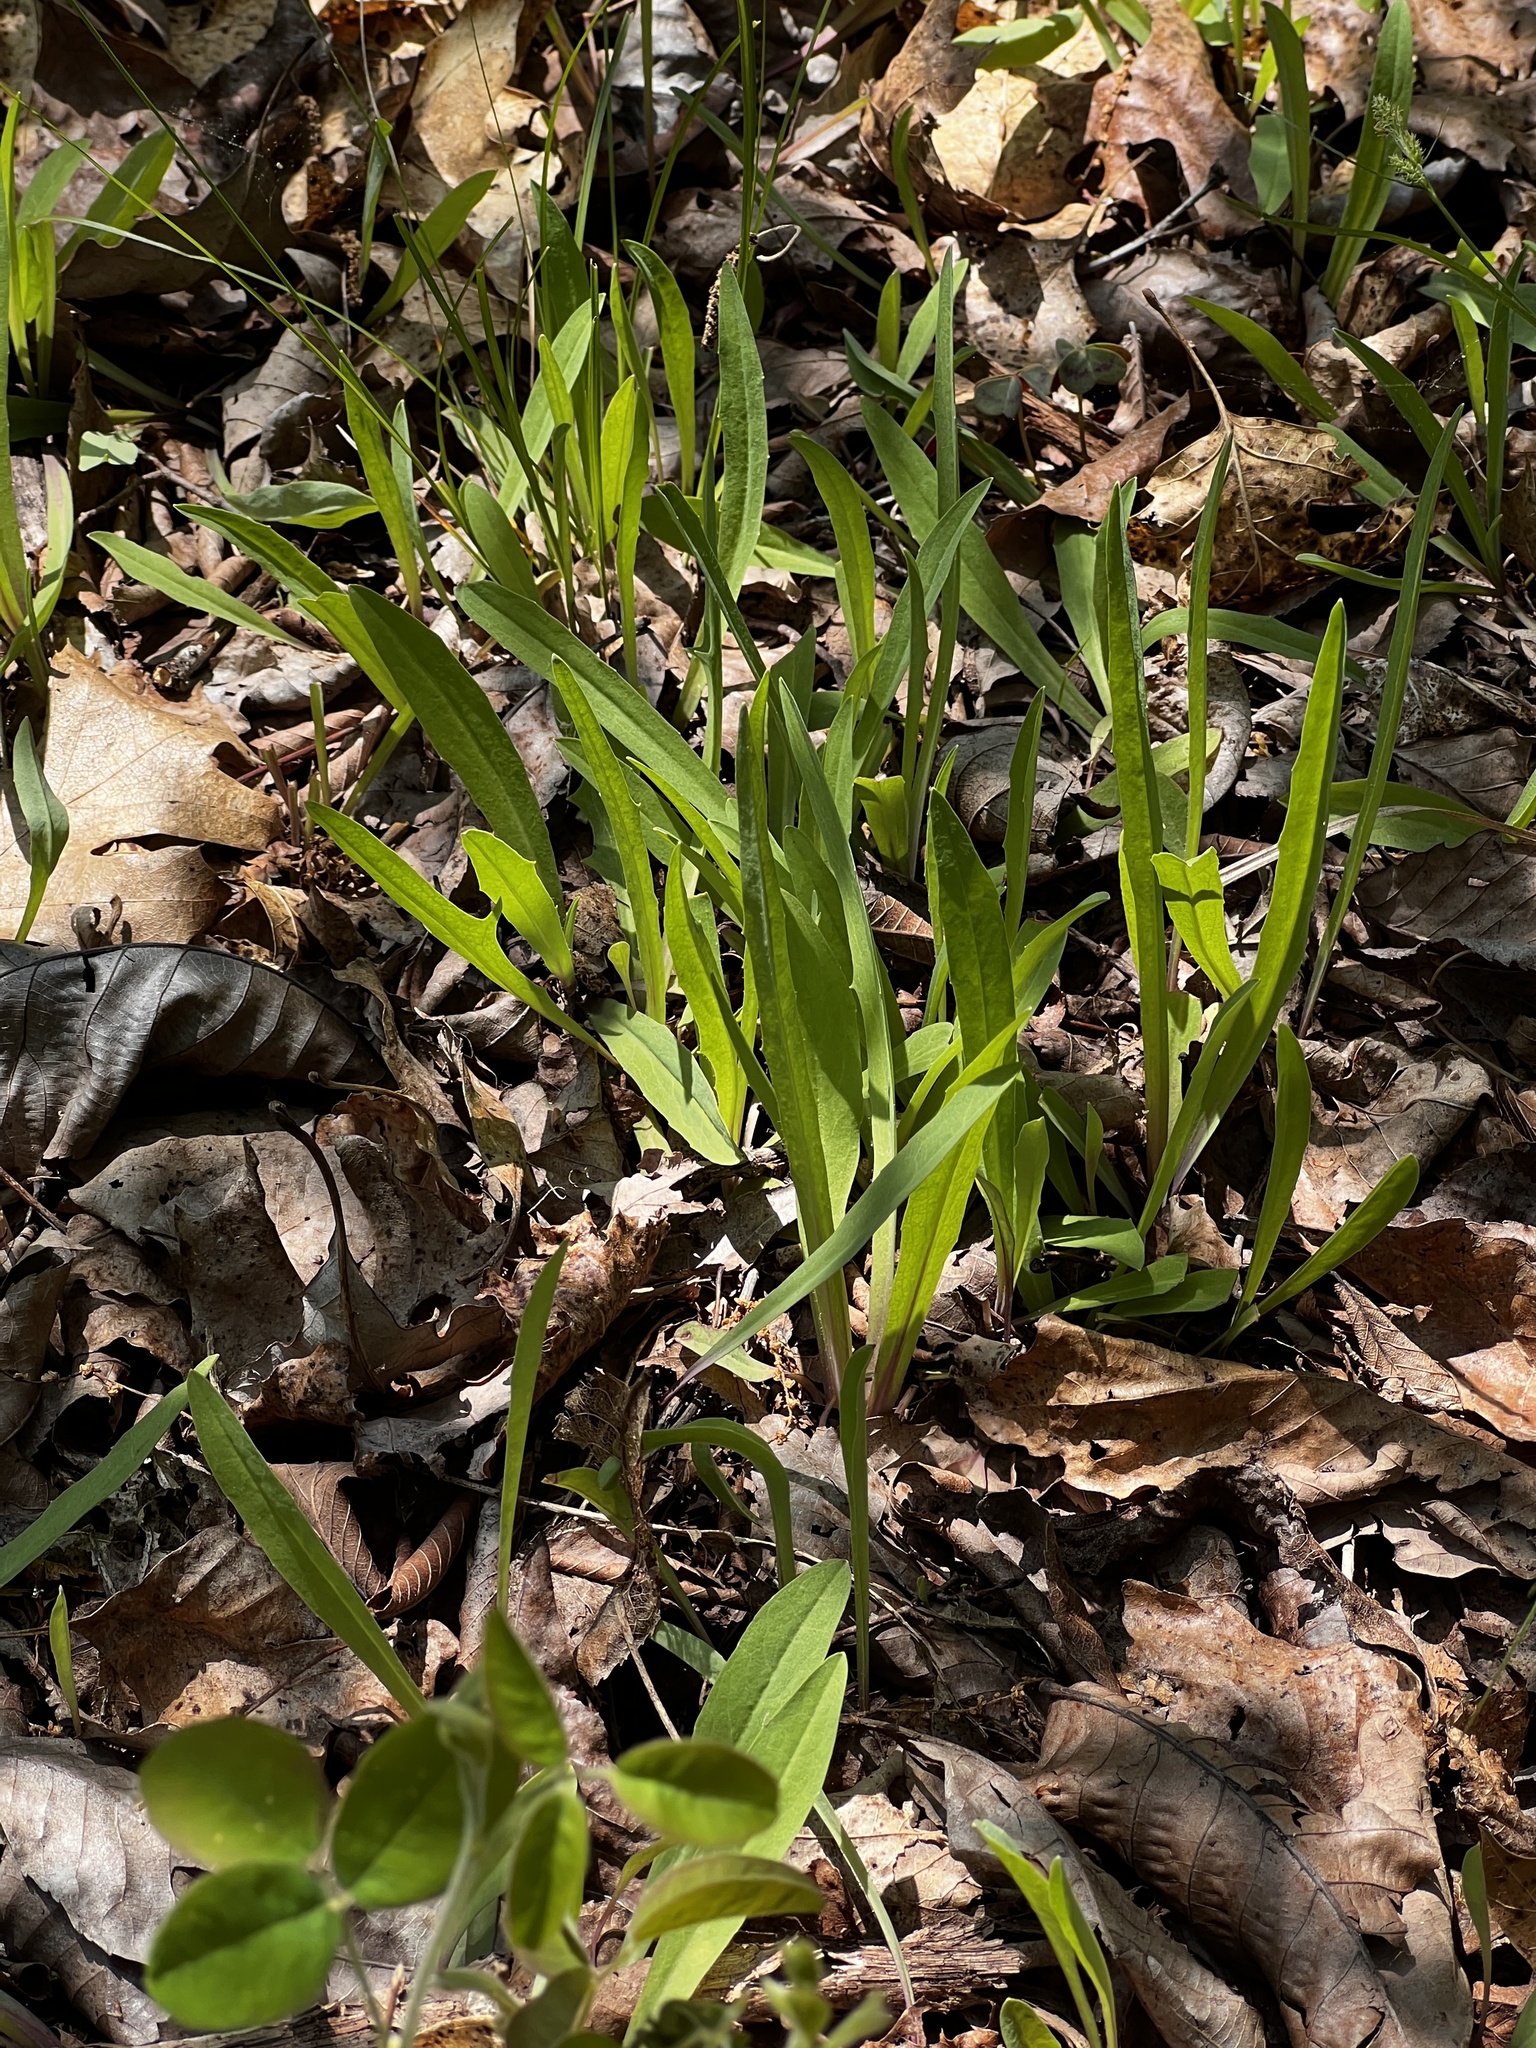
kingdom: Plantae
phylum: Tracheophyta
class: Magnoliopsida
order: Asterales
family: Asteraceae
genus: Krigia
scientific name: Krigia dandelion
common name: Colonial dwarf-dandelion
